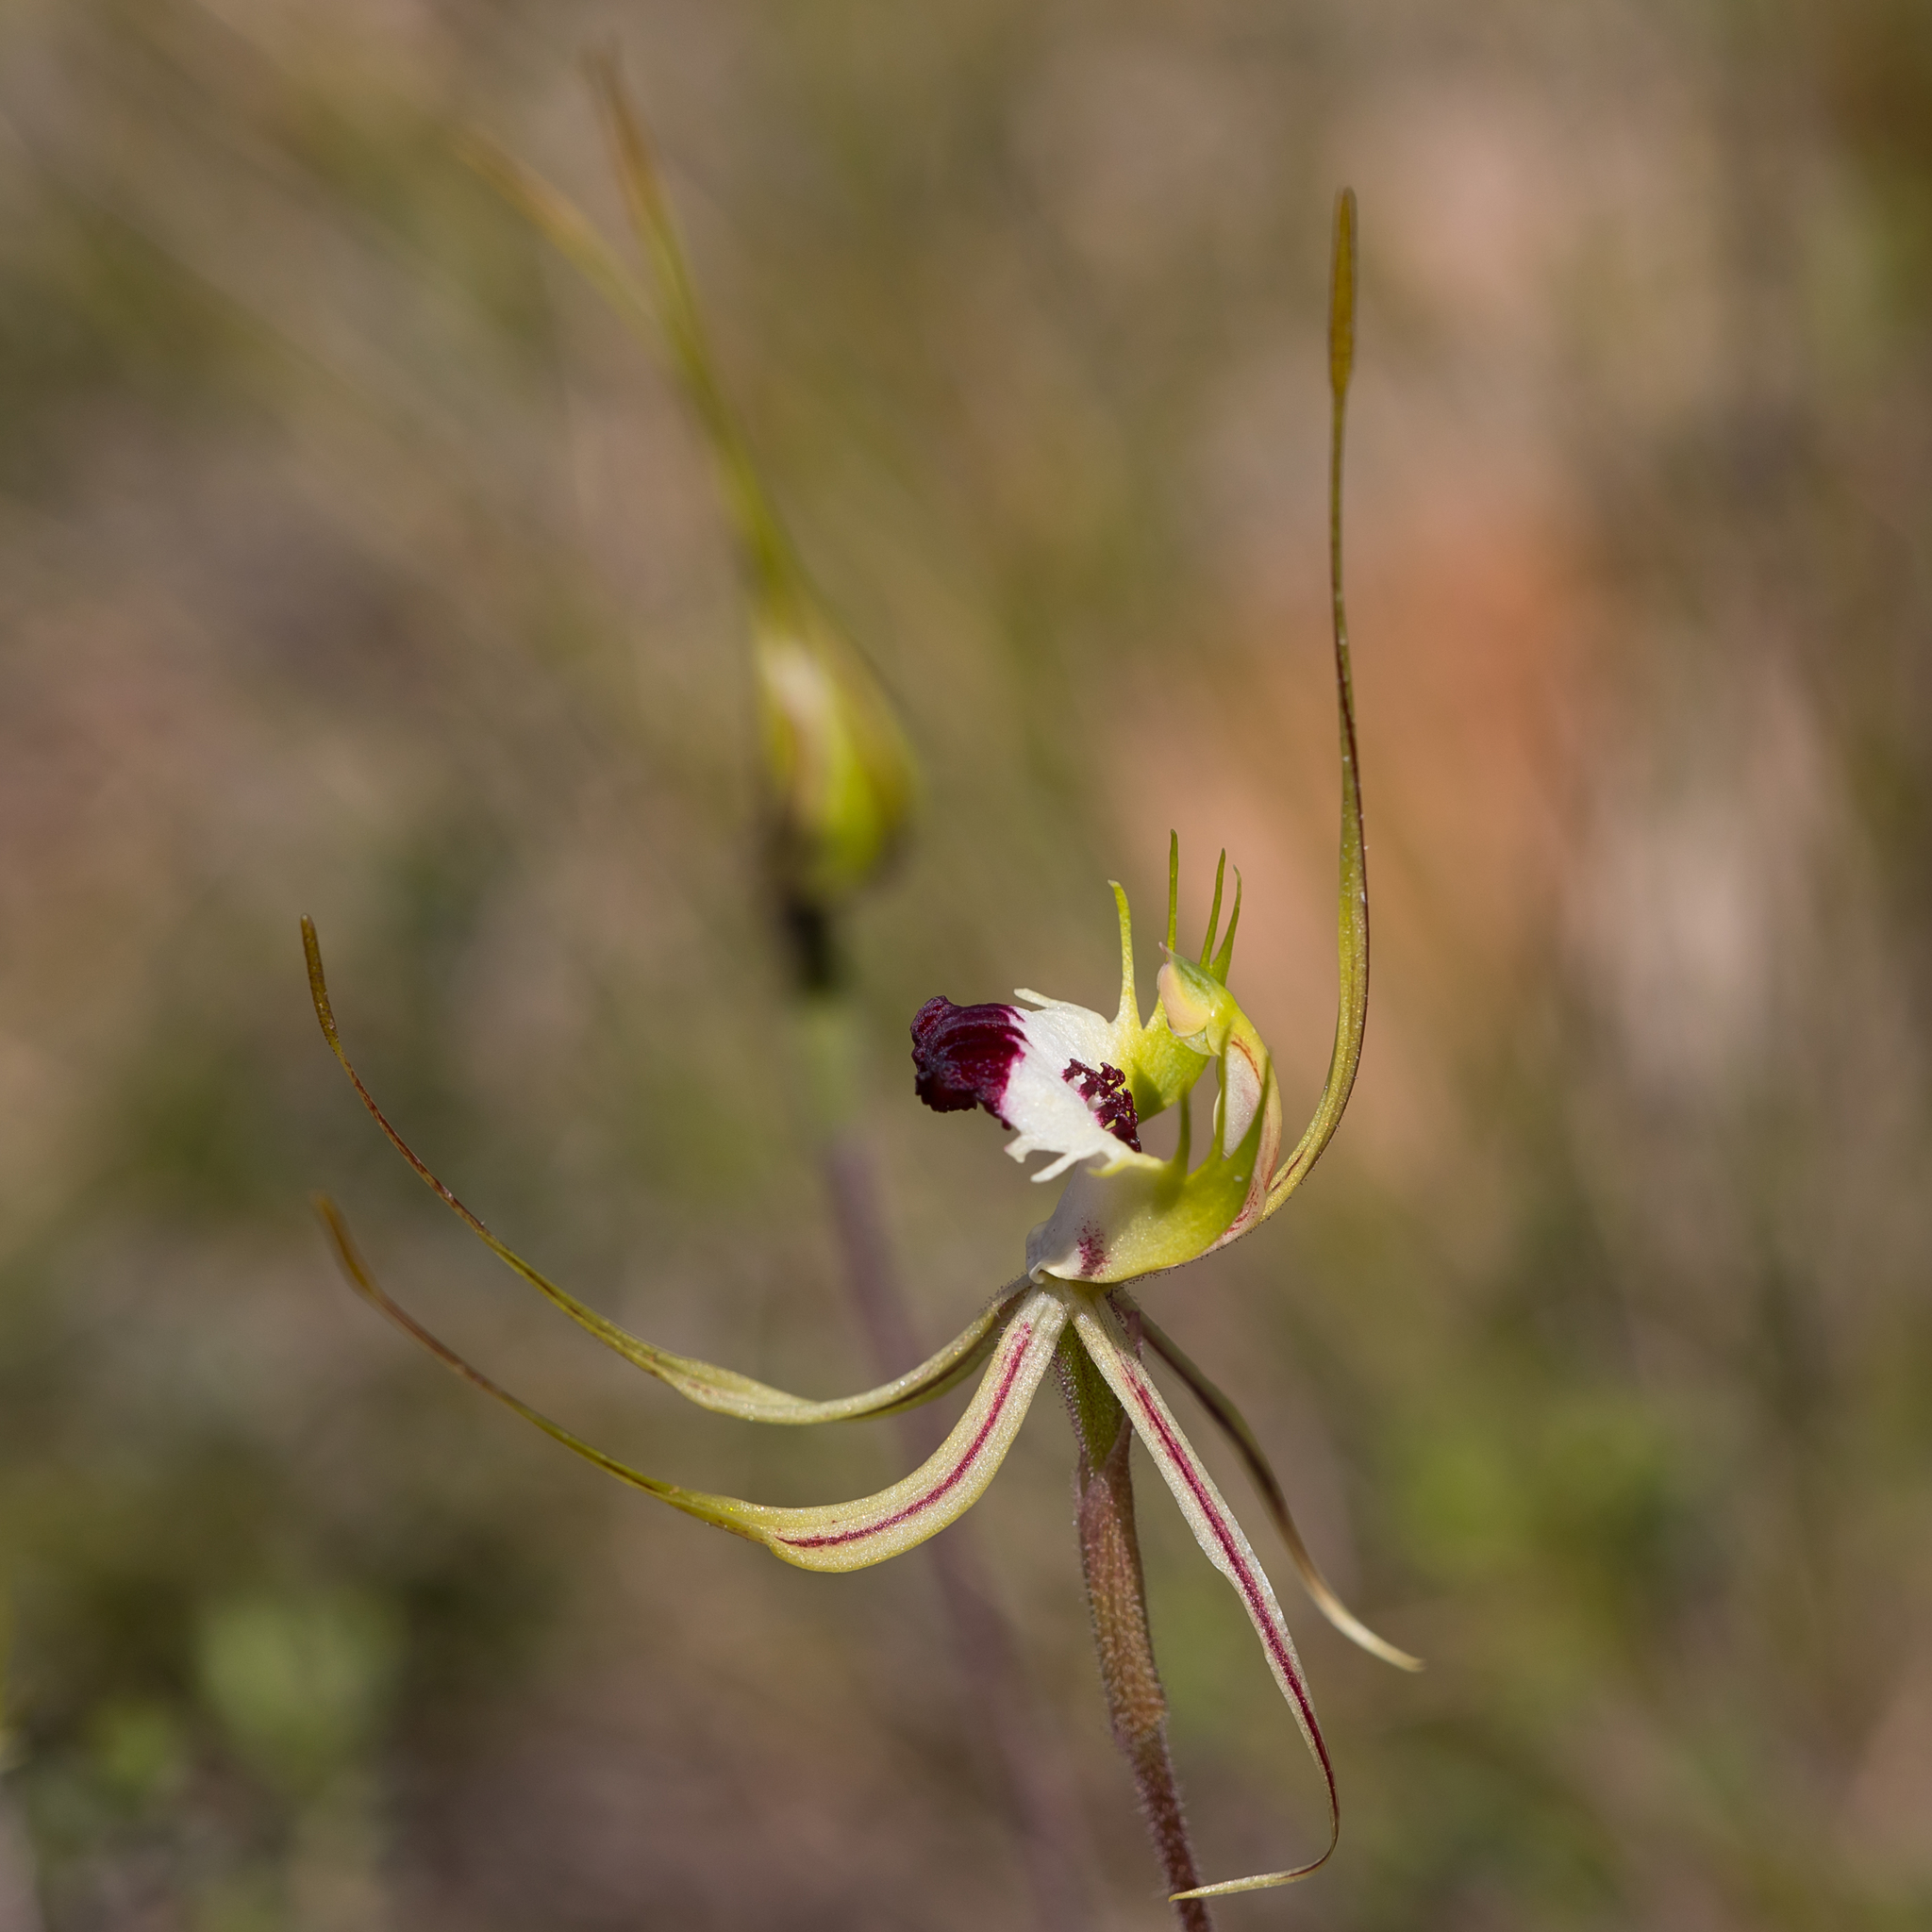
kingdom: Plantae
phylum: Tracheophyta
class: Liliopsida
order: Asparagales
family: Orchidaceae
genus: Caladenia
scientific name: Caladenia tentaculata
